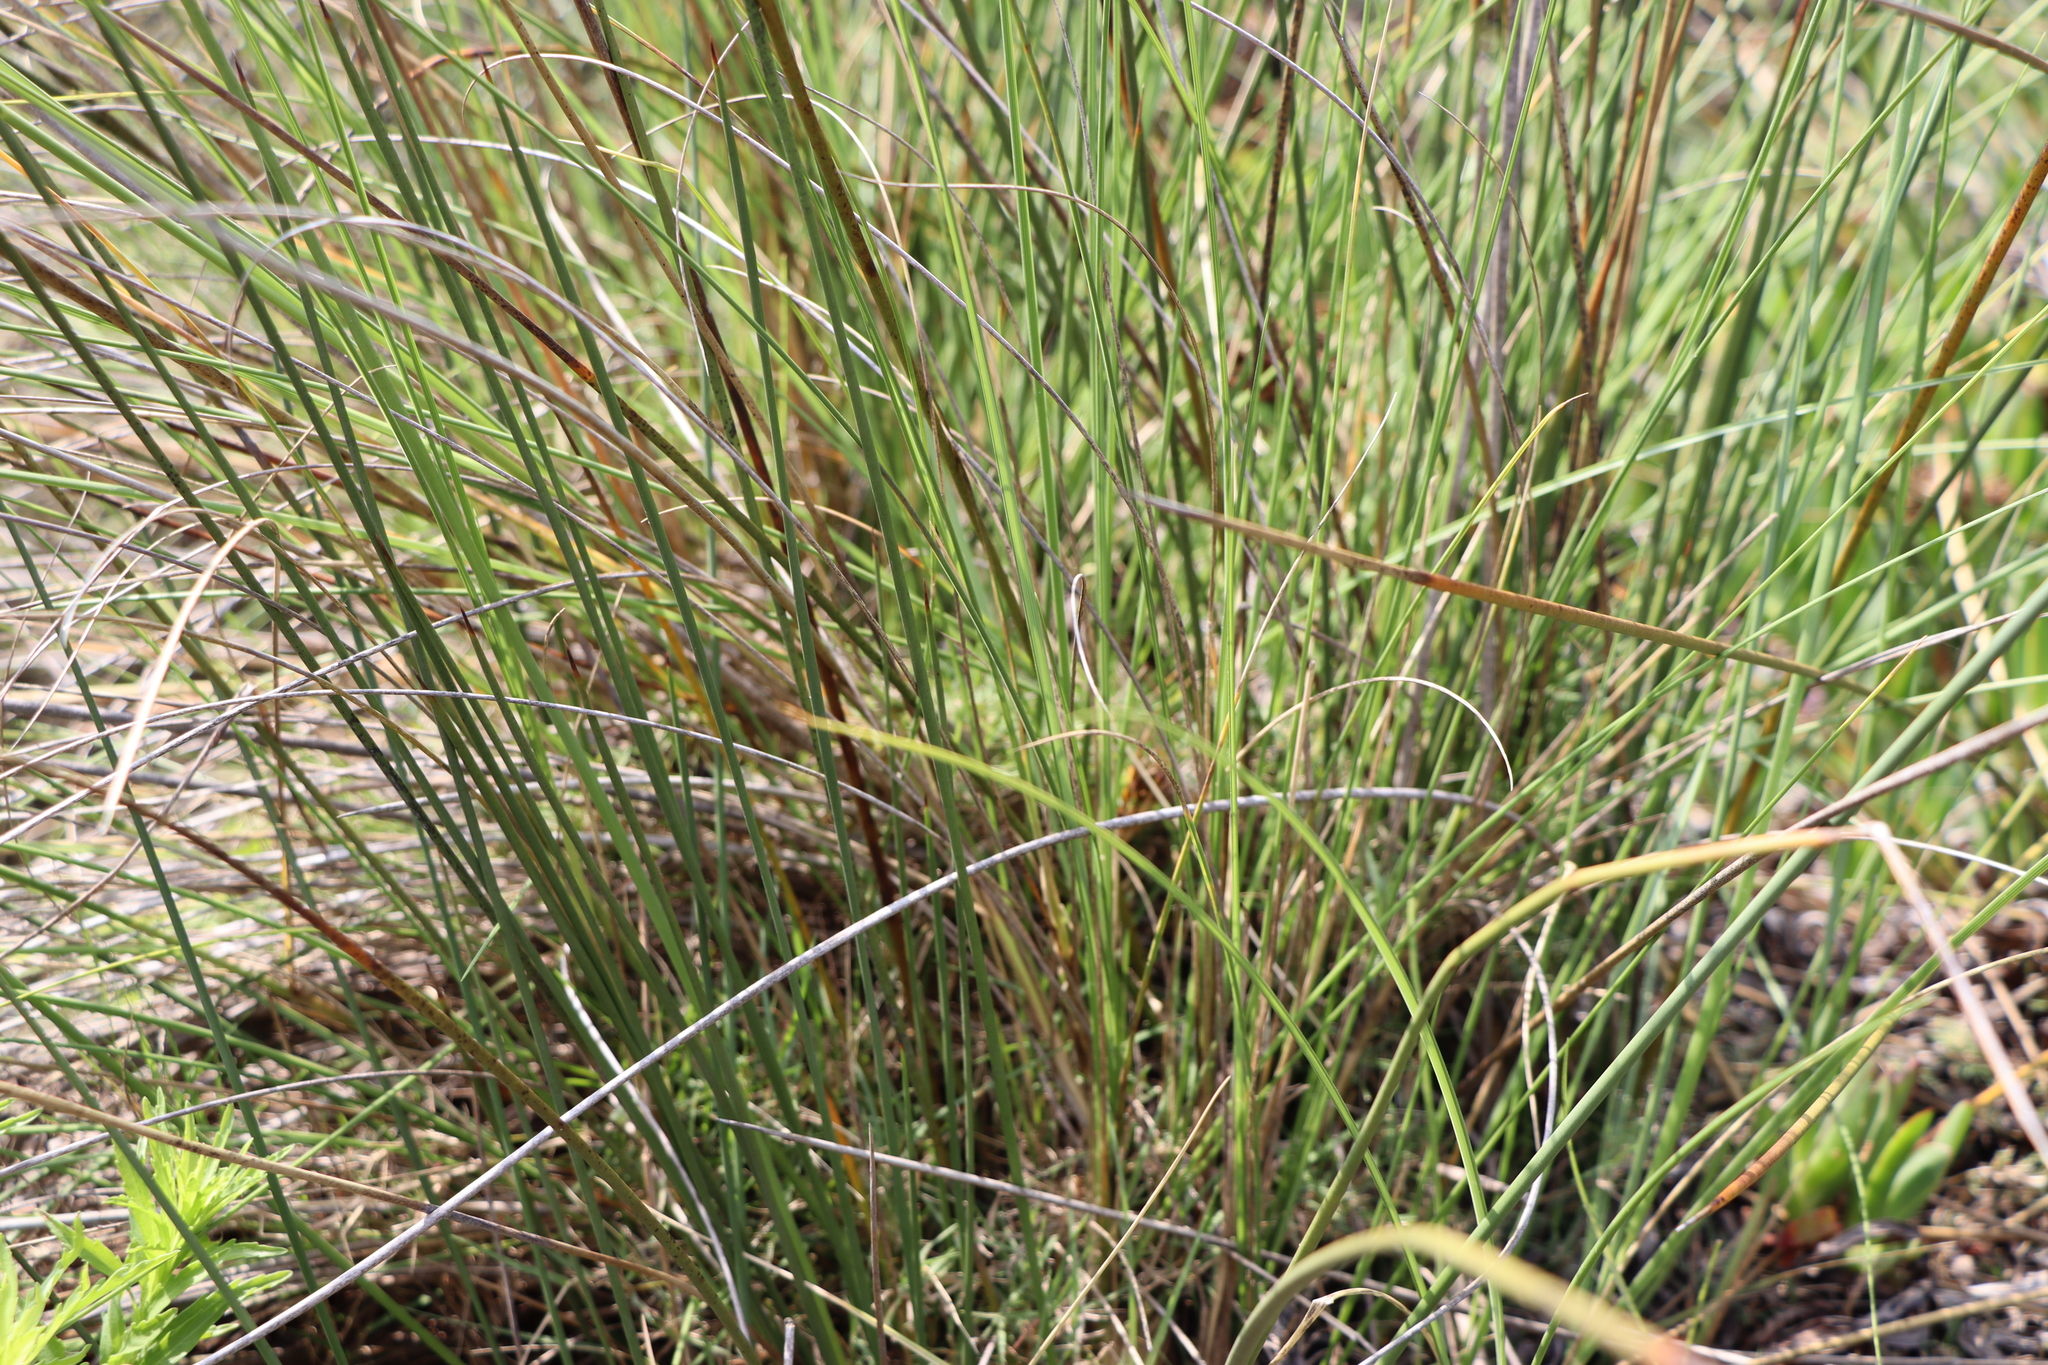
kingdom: Plantae
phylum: Tracheophyta
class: Liliopsida
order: Poales
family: Juncaceae
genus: Juncus
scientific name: Juncus acutus
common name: Sharp rush
